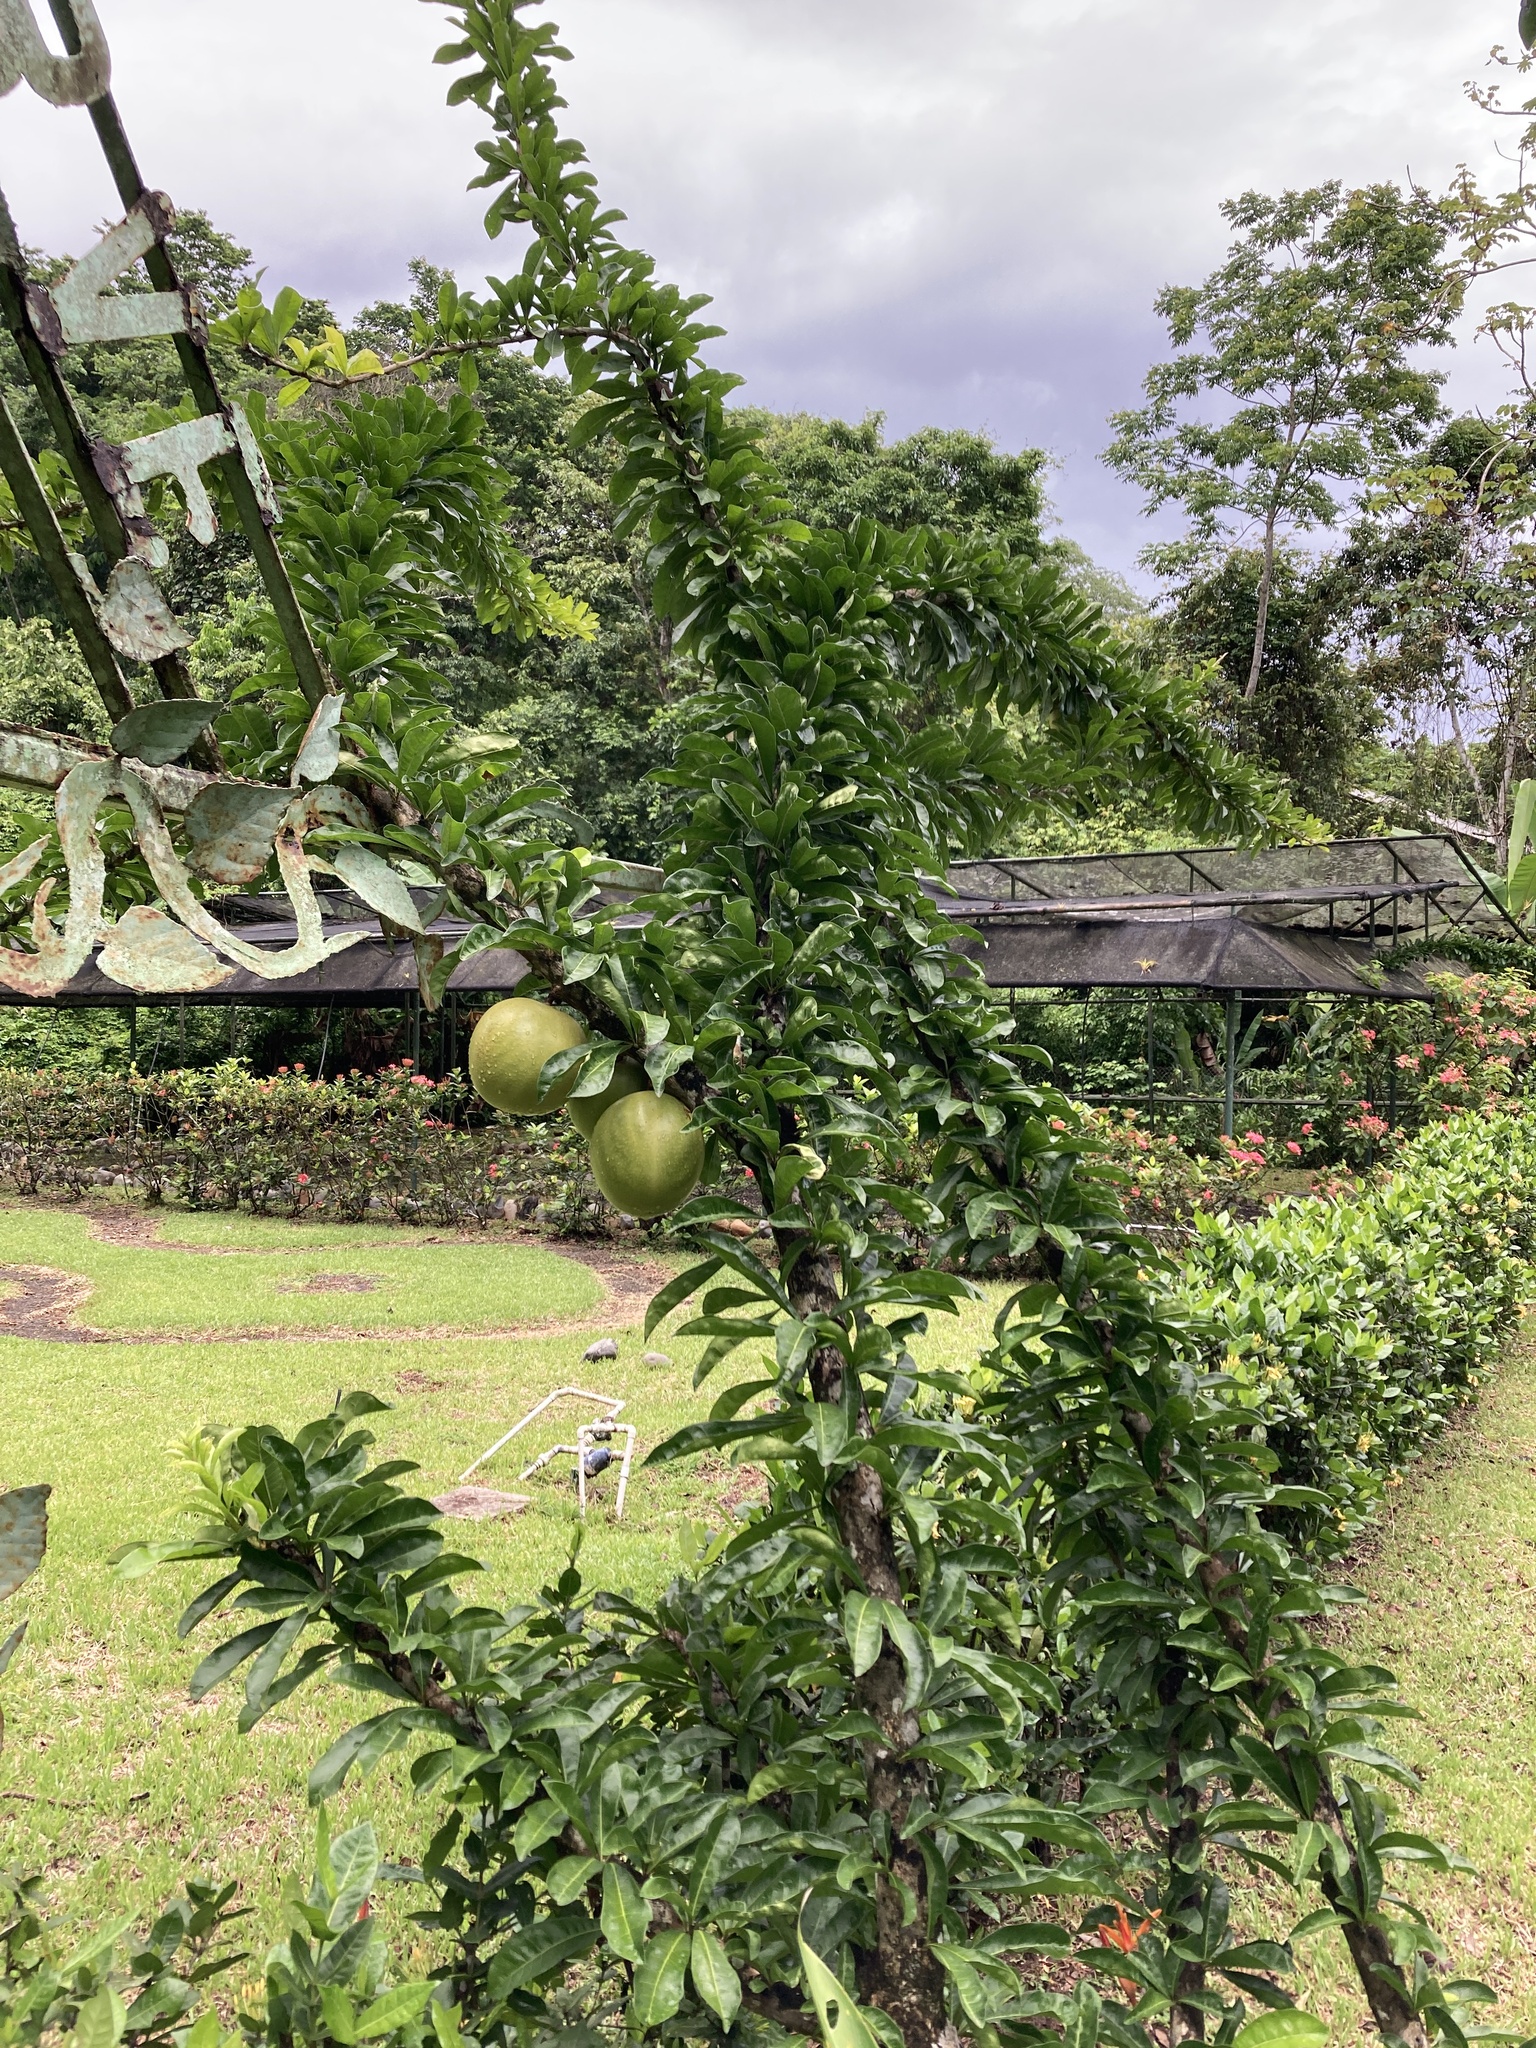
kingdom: Plantae
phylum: Tracheophyta
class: Magnoliopsida
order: Lamiales
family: Bignoniaceae
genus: Crescentia
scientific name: Crescentia cujete
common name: Calabash
